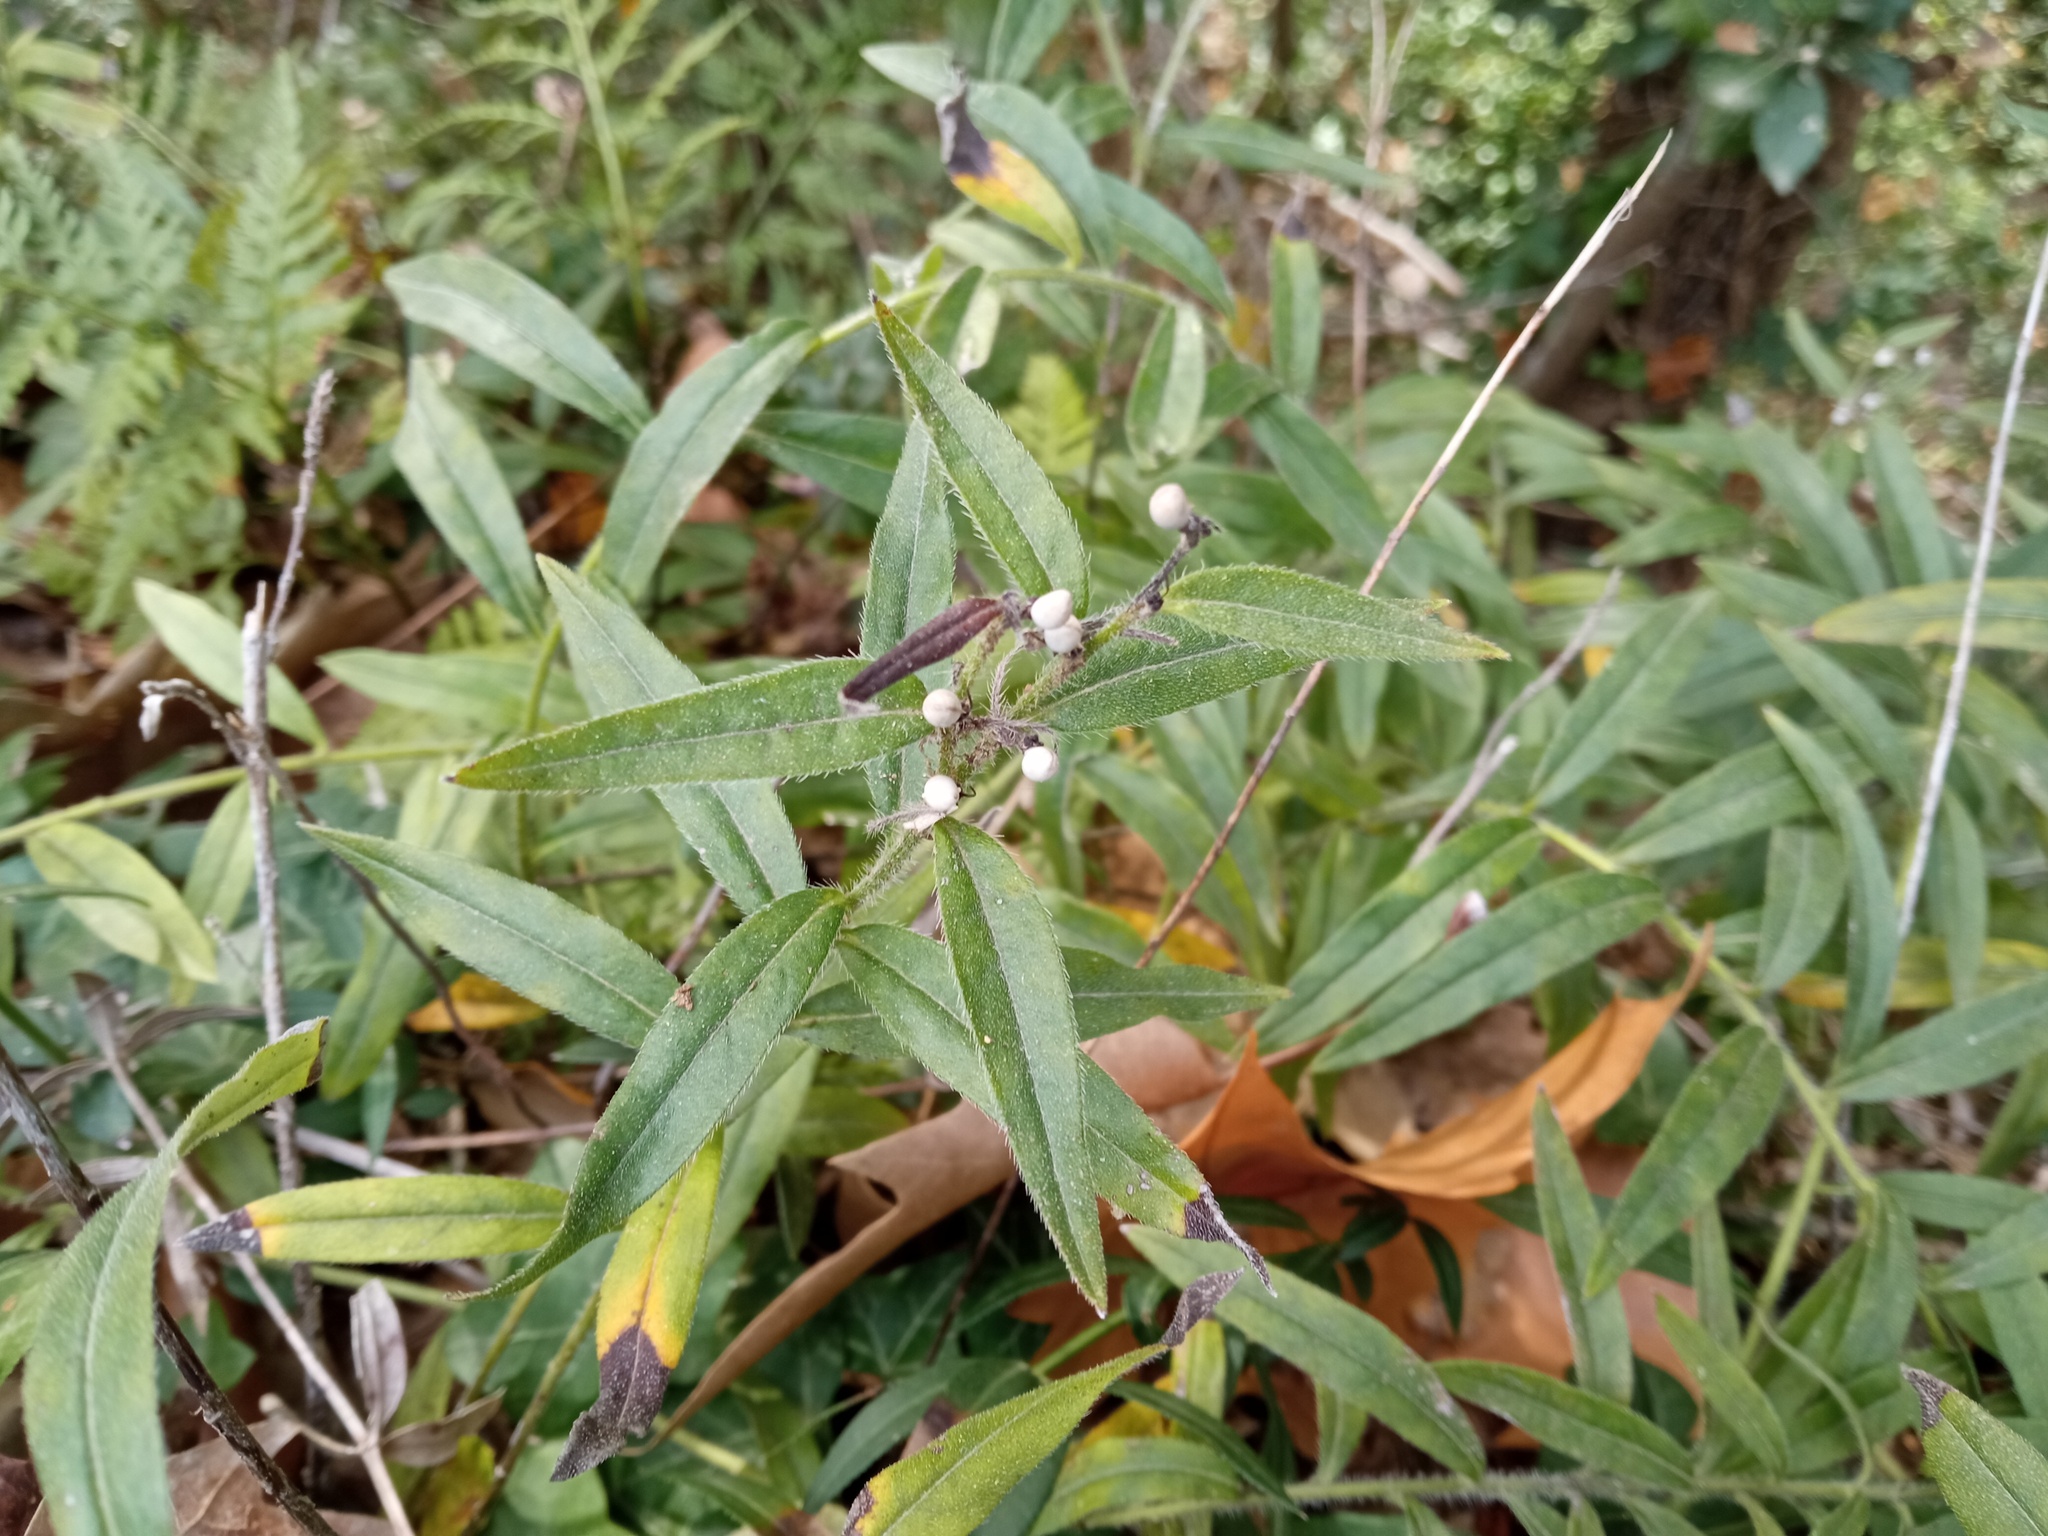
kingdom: Plantae
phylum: Tracheophyta
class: Magnoliopsida
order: Boraginales
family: Boraginaceae
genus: Aegonychon
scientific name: Aegonychon purpurocaeruleum
